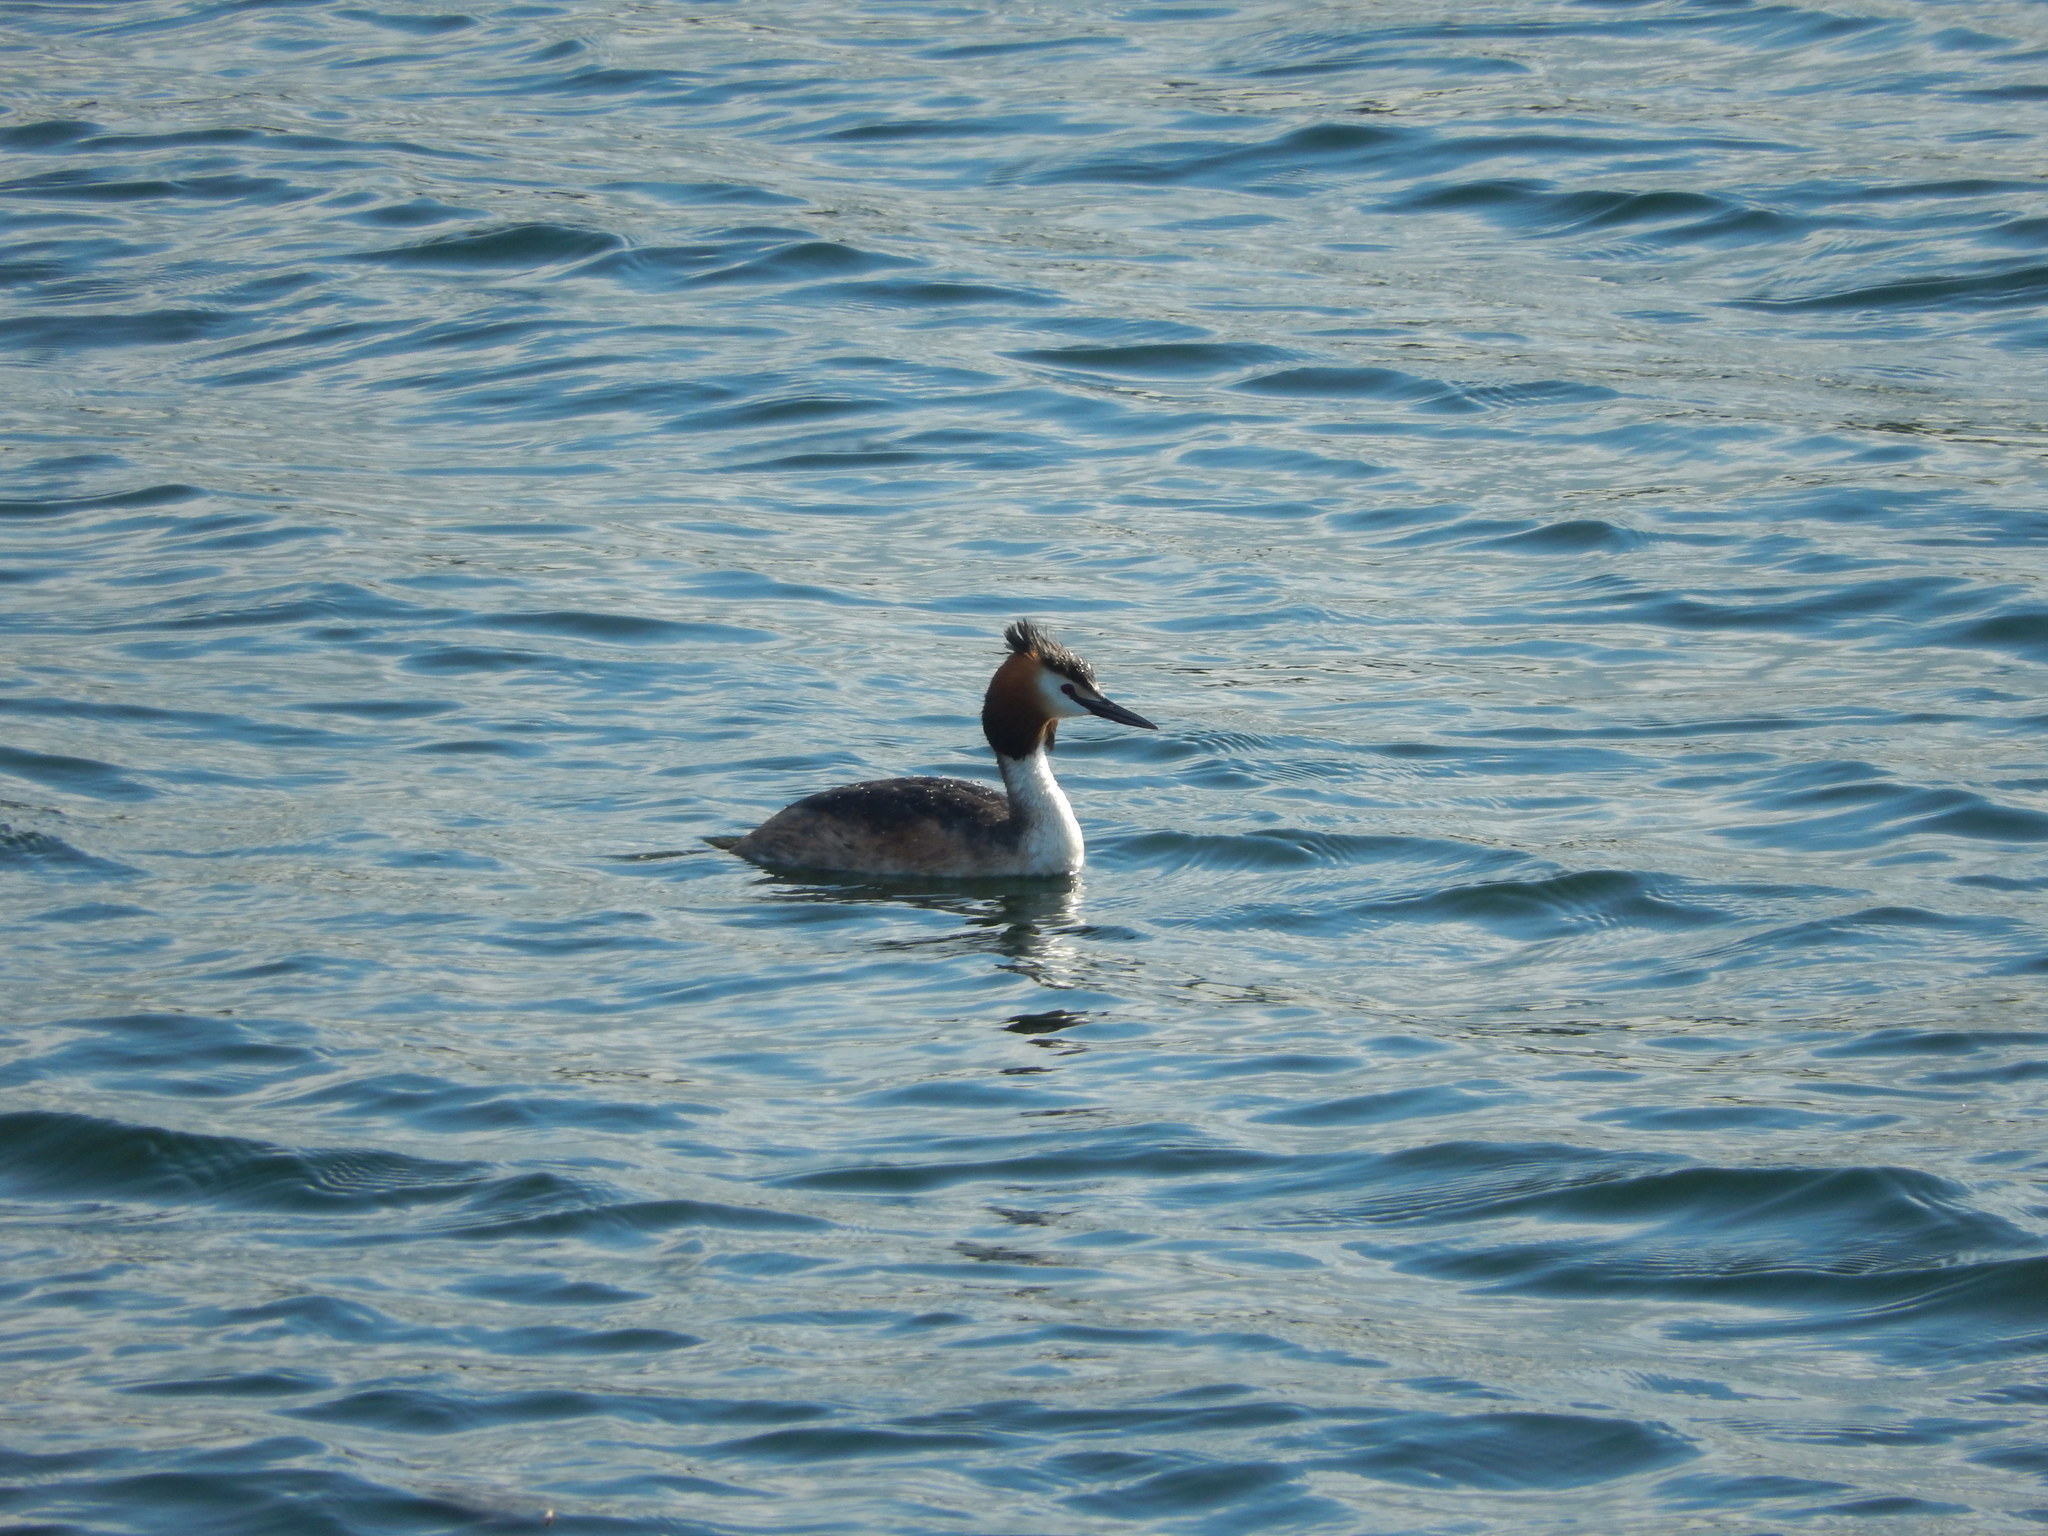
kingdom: Animalia
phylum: Chordata
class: Aves
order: Podicipediformes
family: Podicipedidae
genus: Podiceps
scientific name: Podiceps cristatus
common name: Great crested grebe
